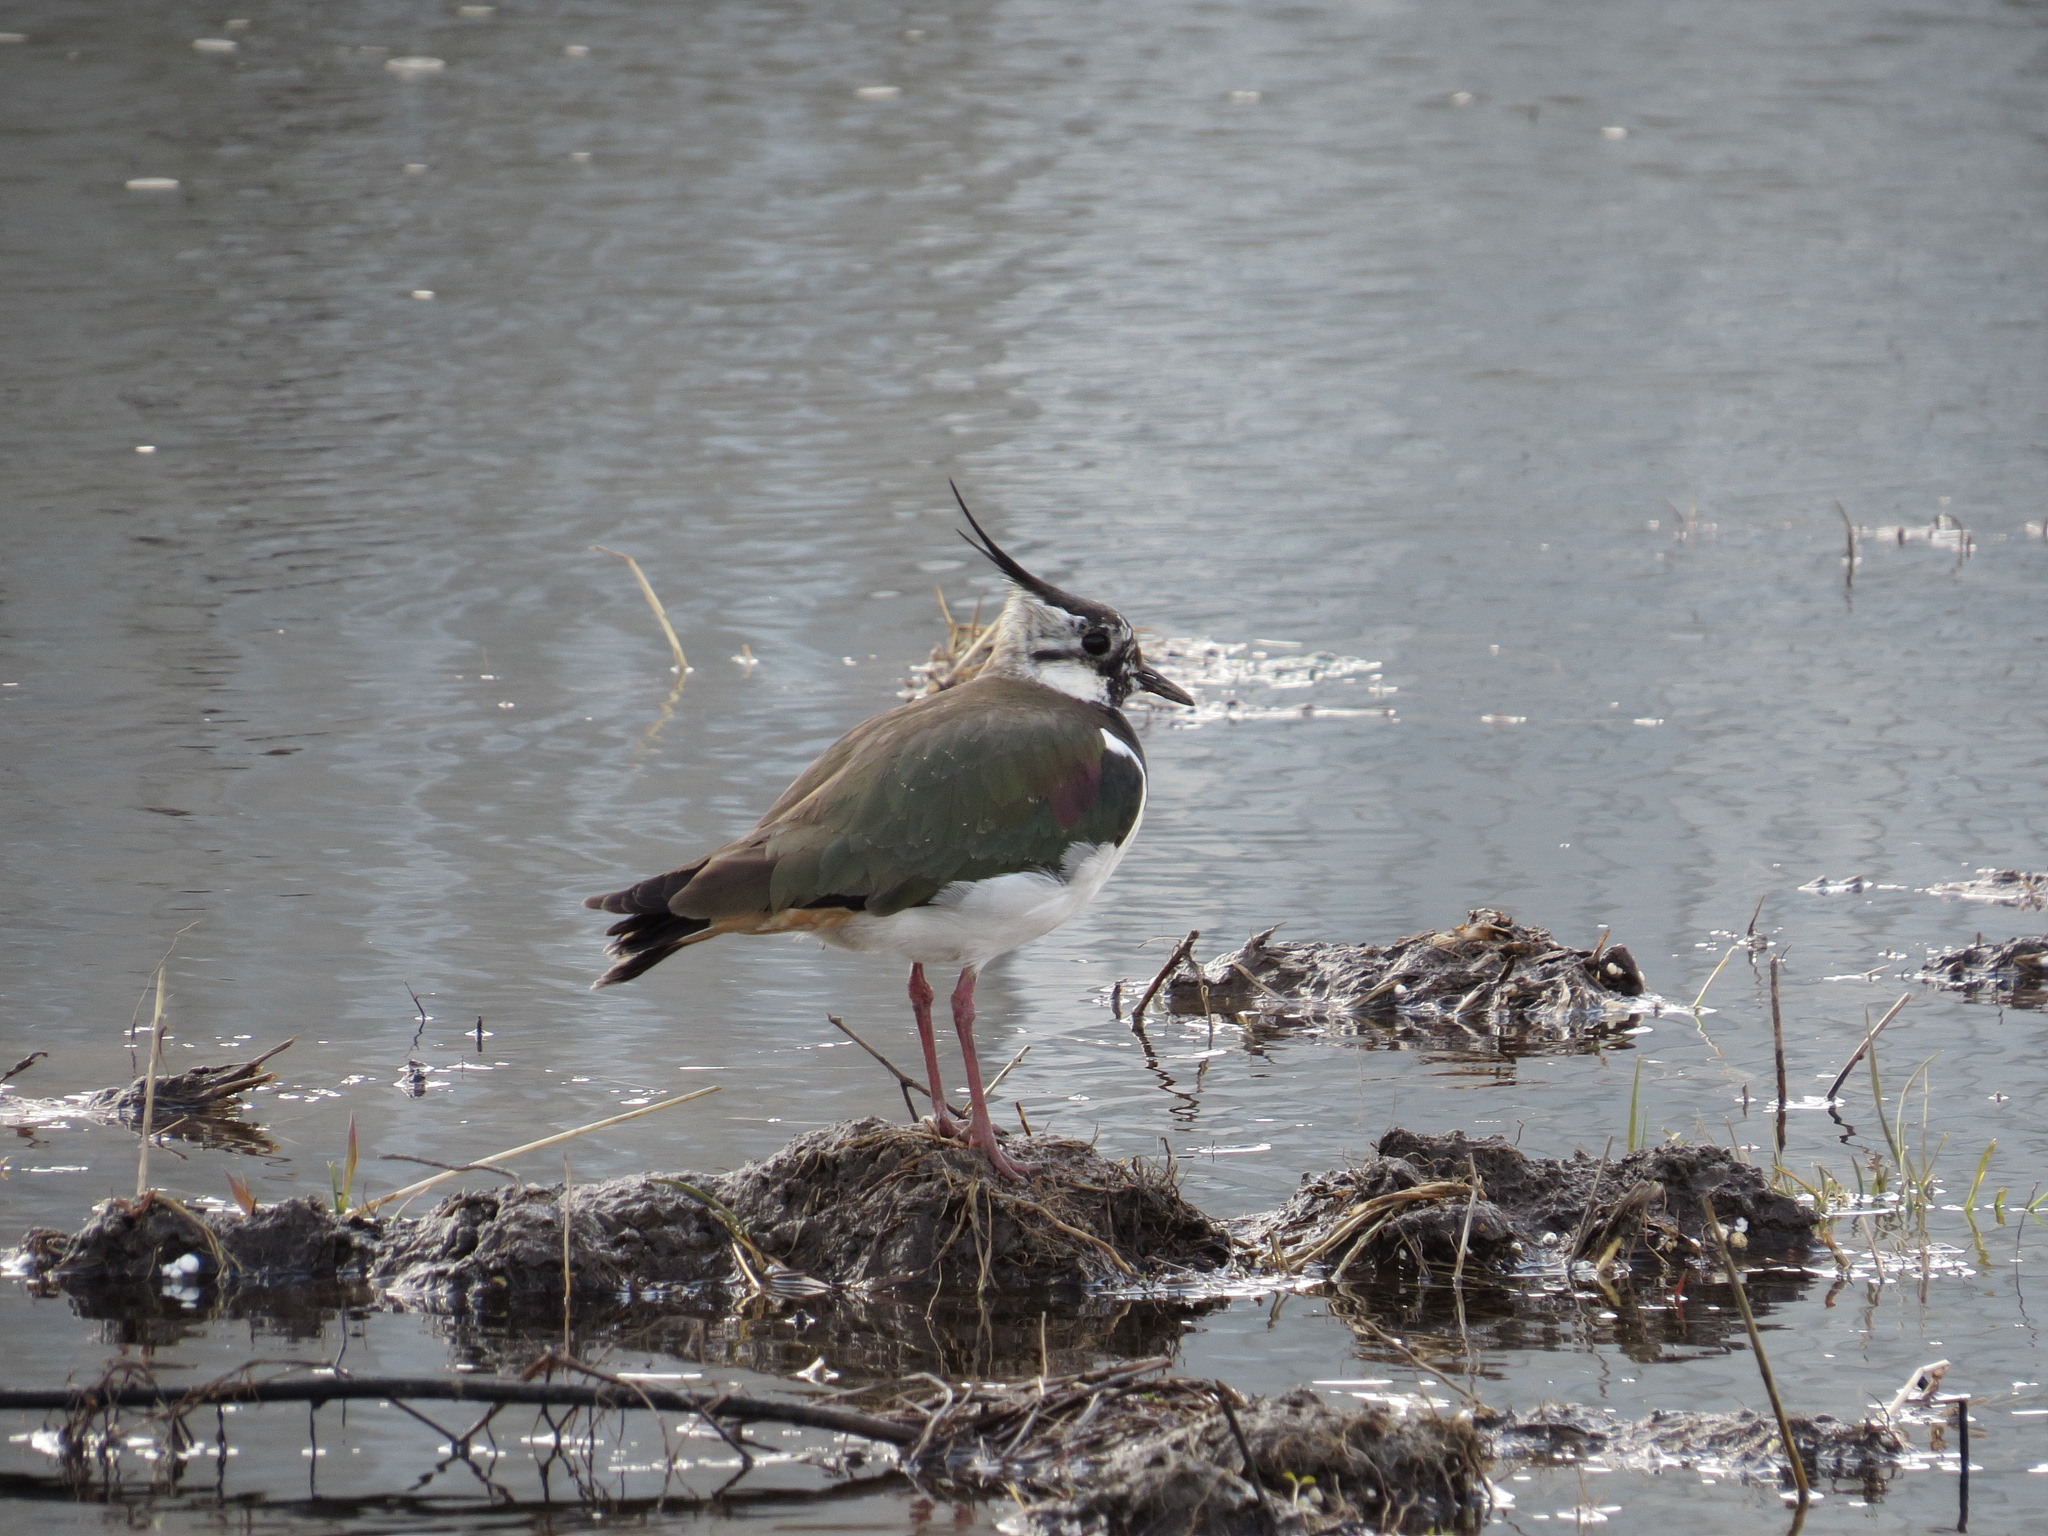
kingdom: Animalia
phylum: Chordata
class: Aves
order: Charadriiformes
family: Charadriidae
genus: Vanellus
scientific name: Vanellus vanellus
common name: Northern lapwing
